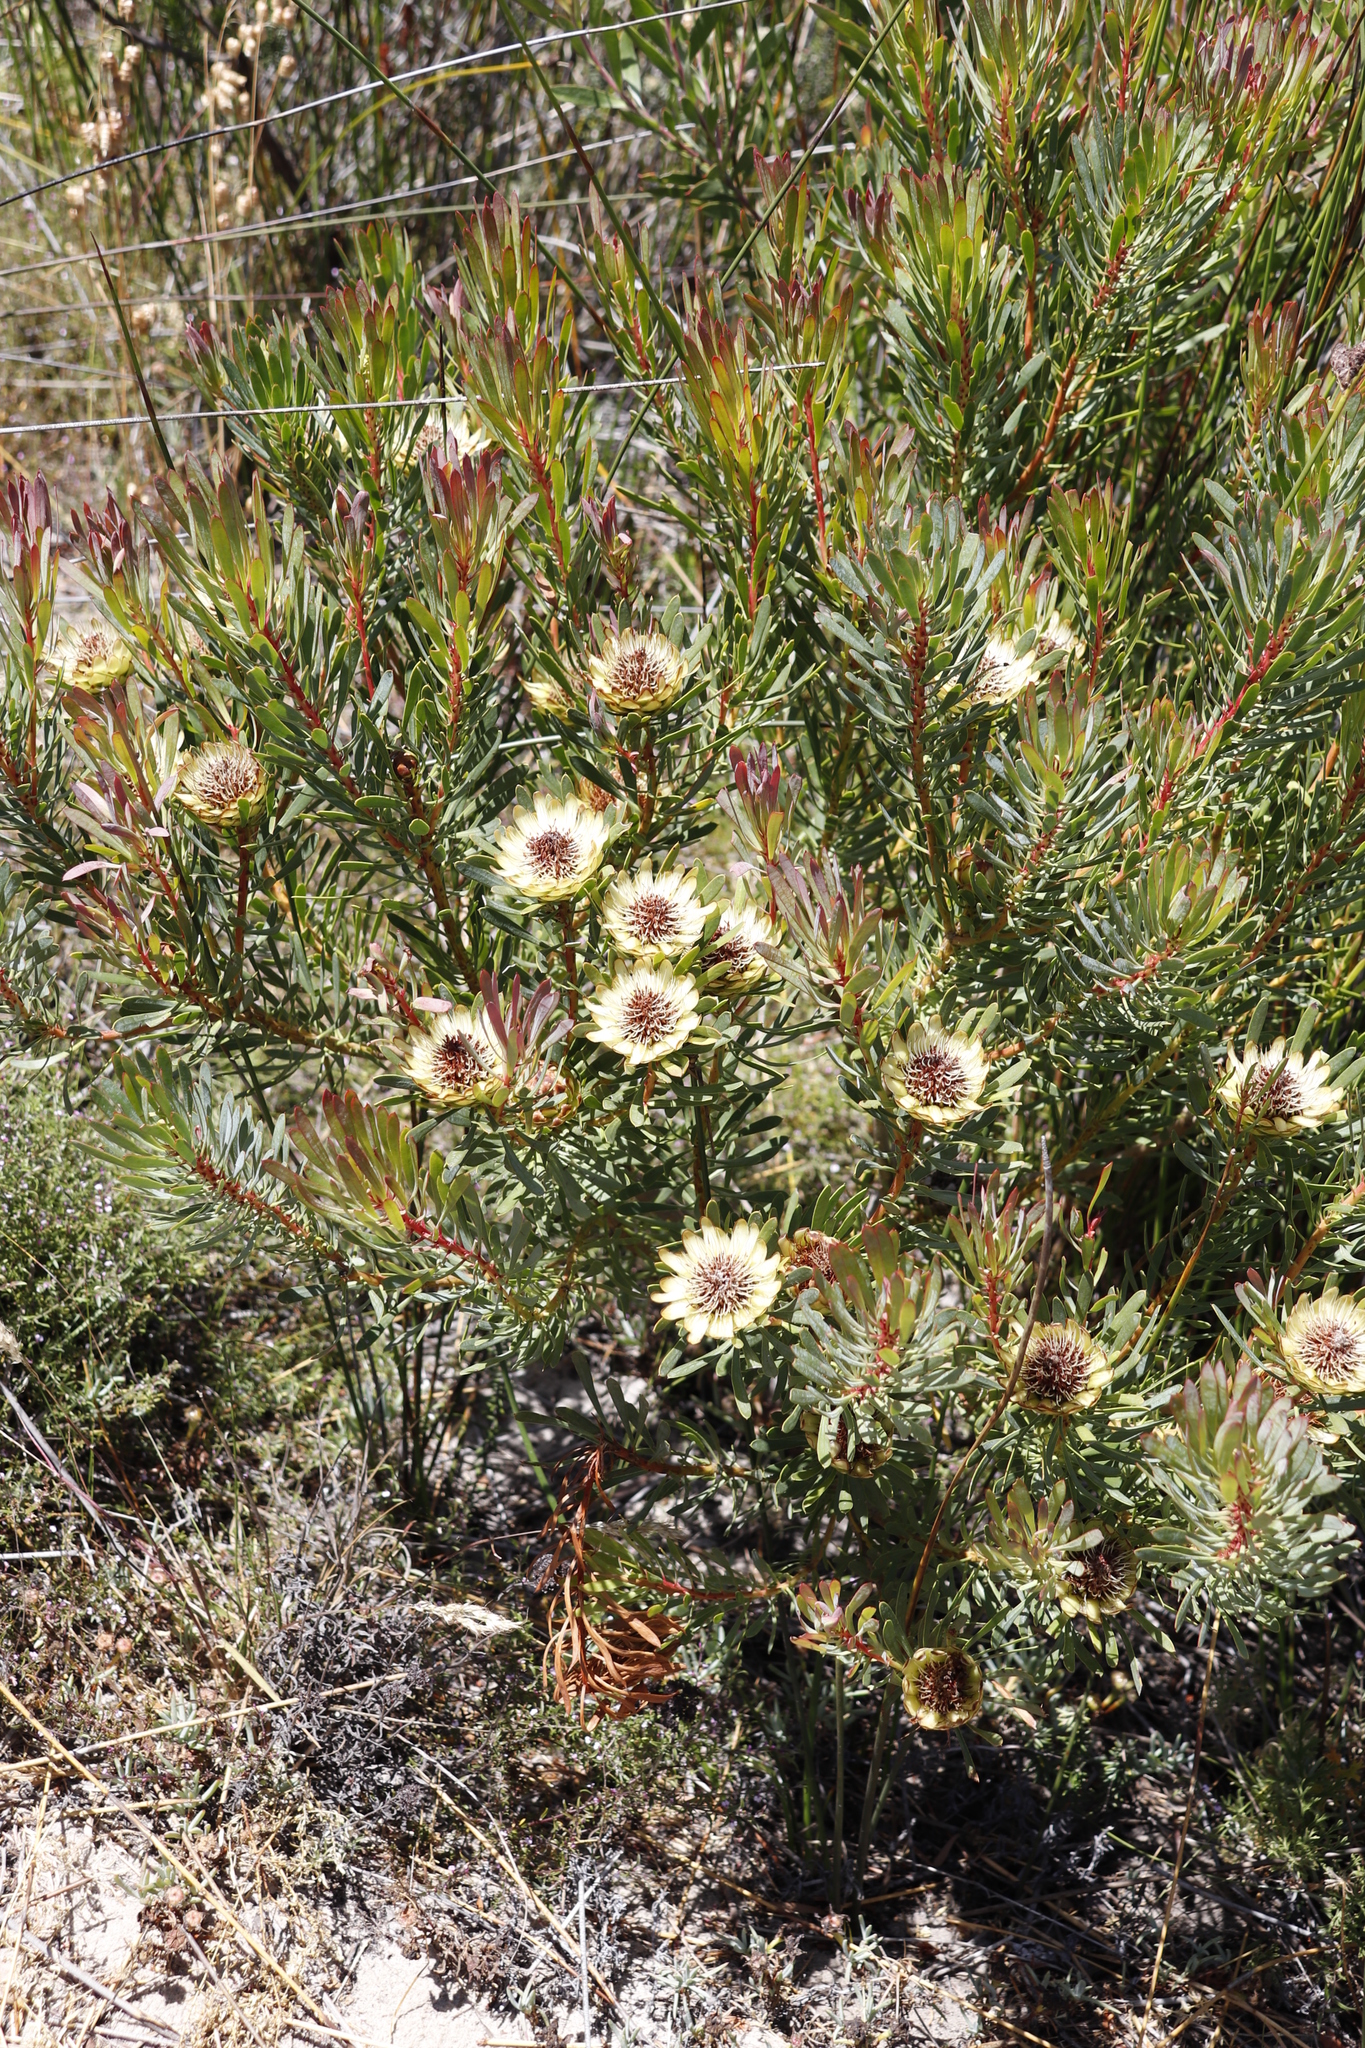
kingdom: Plantae
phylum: Tracheophyta
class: Magnoliopsida
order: Proteales
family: Proteaceae
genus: Protea
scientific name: Protea scolymocephala
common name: Thistle sugarbush
